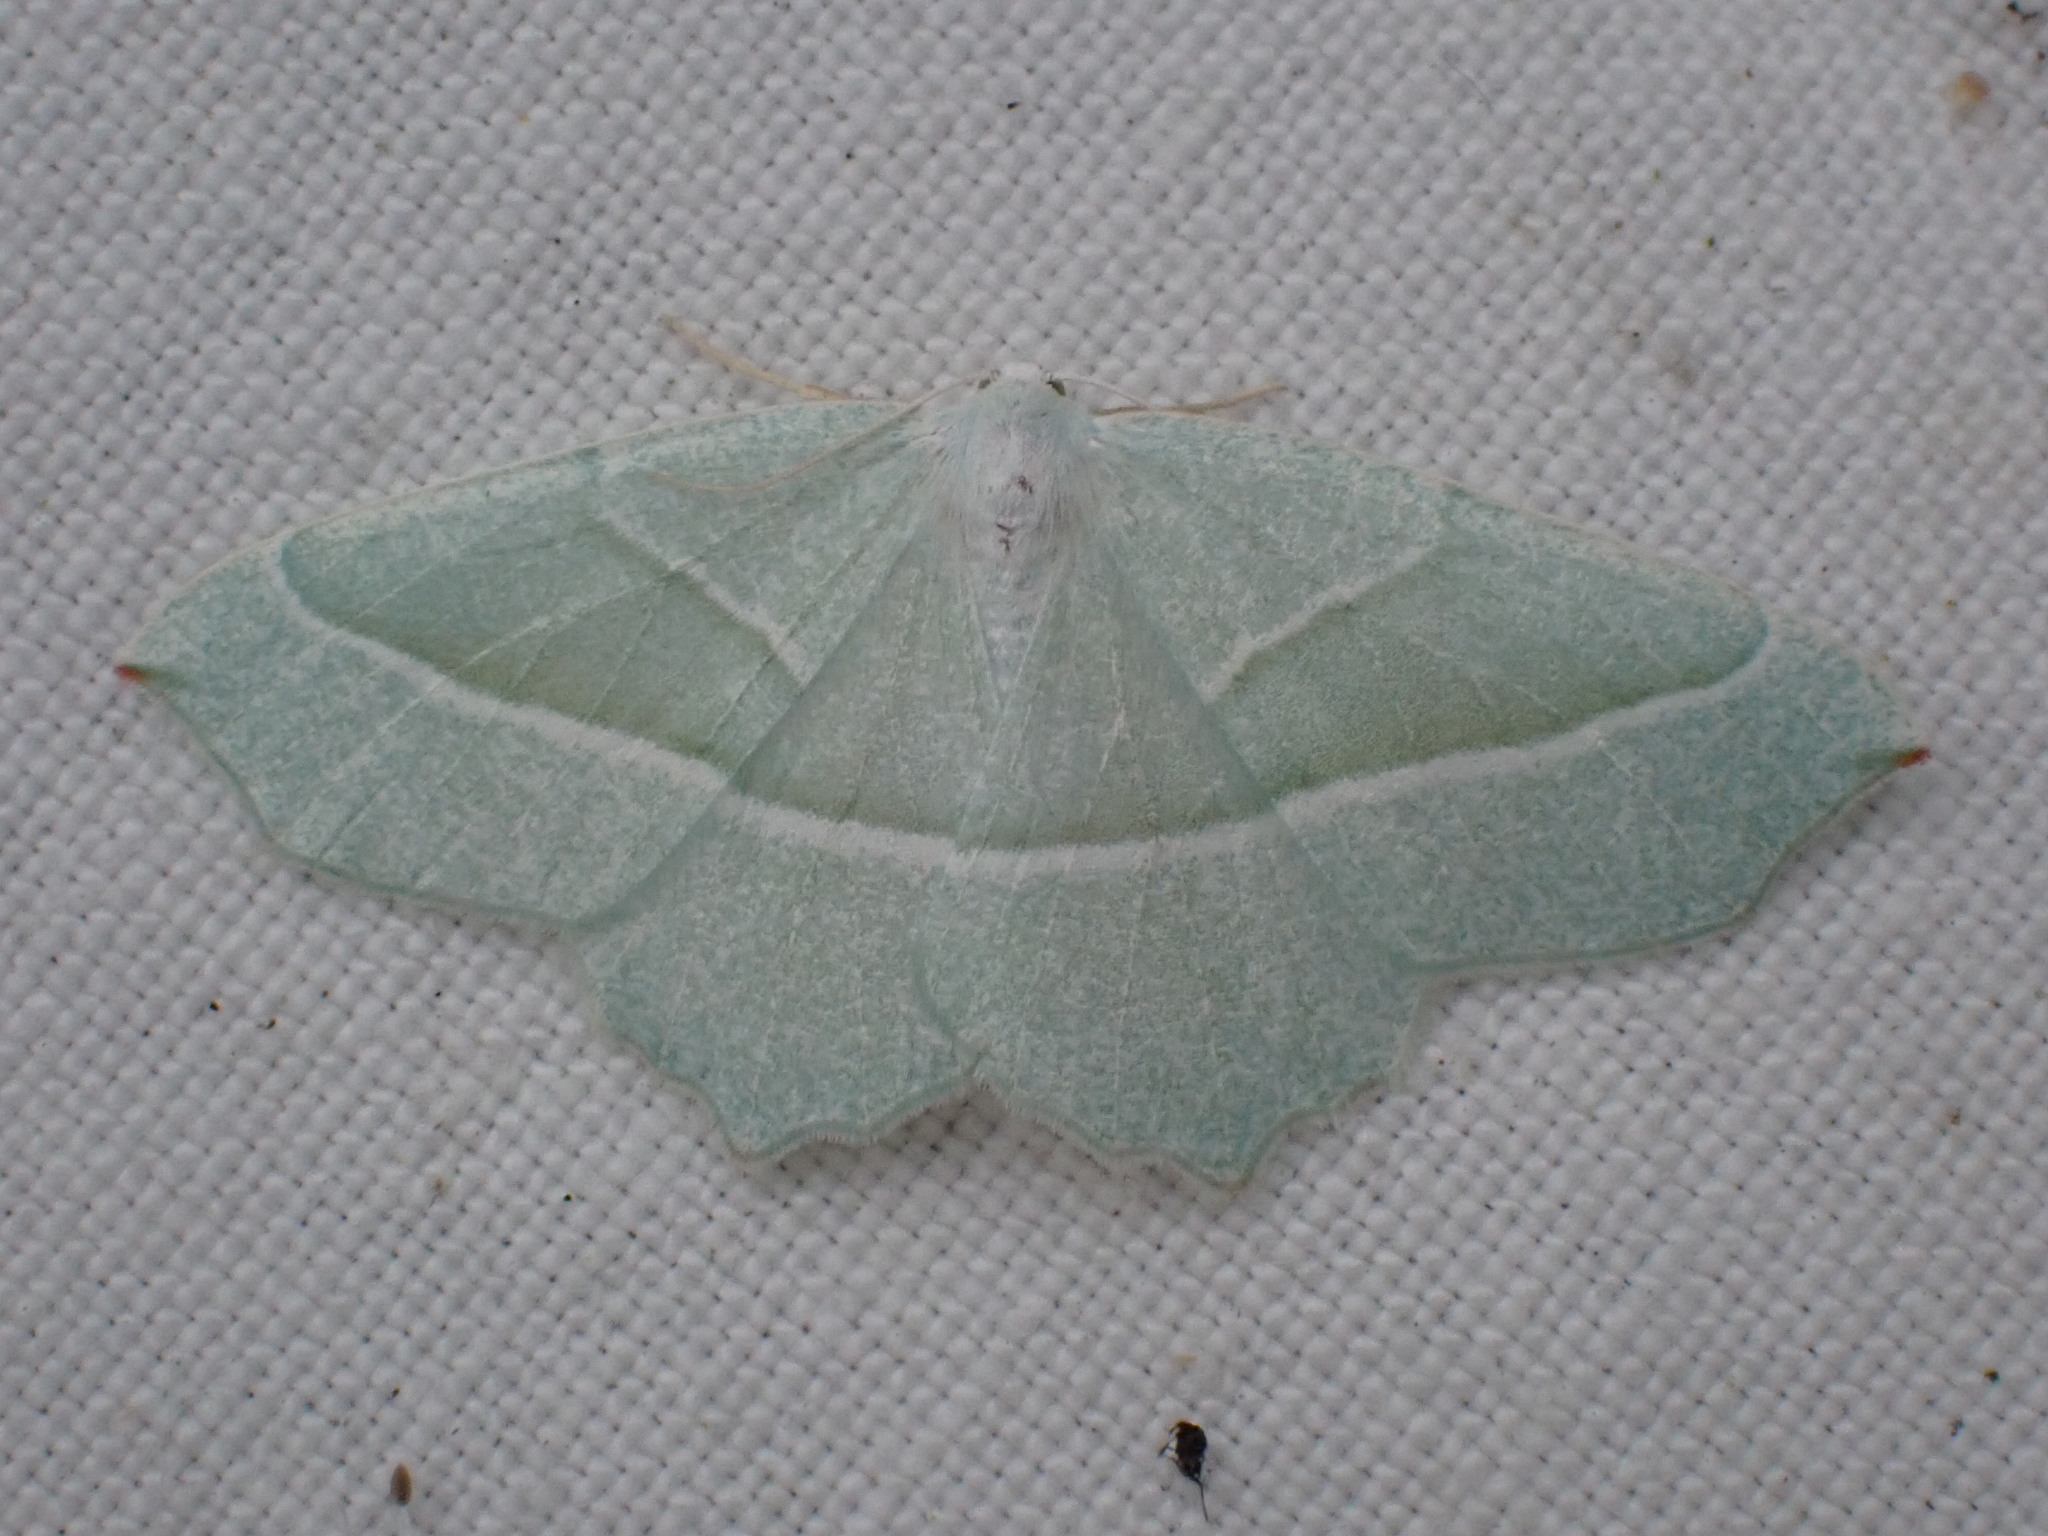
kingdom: Animalia
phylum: Arthropoda
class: Insecta
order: Lepidoptera
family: Geometridae
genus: Campaea
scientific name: Campaea margaritaria
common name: Light emerald
